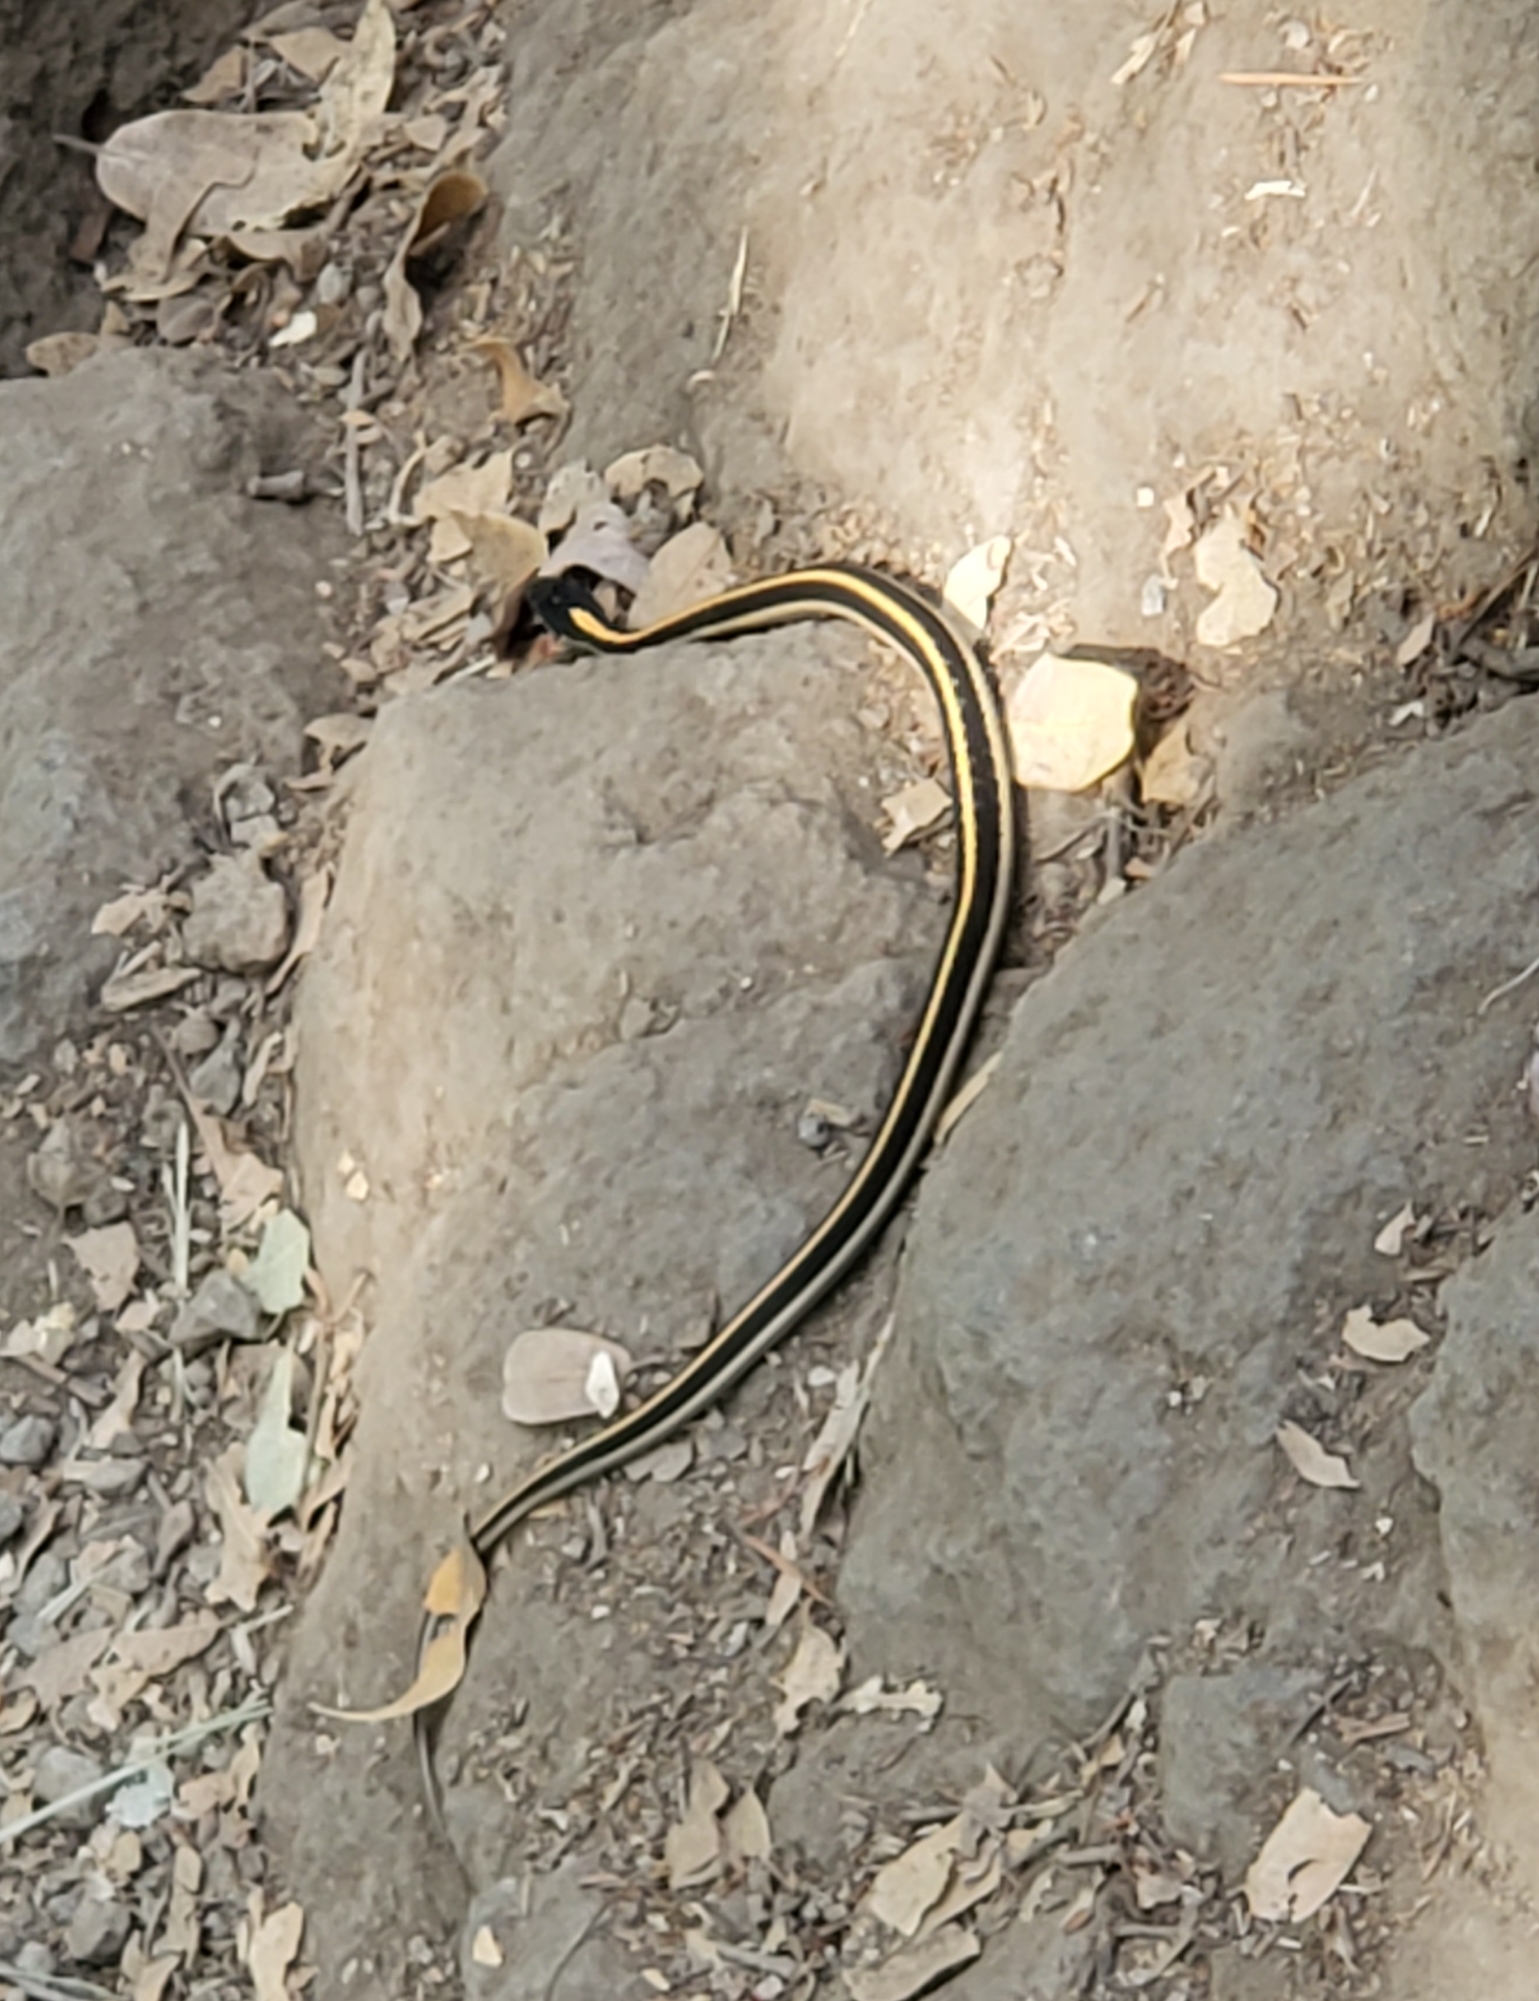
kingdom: Animalia
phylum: Chordata
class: Squamata
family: Colubridae
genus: Thamnophis
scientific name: Thamnophis elegans
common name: Western terrestrial garter snake
